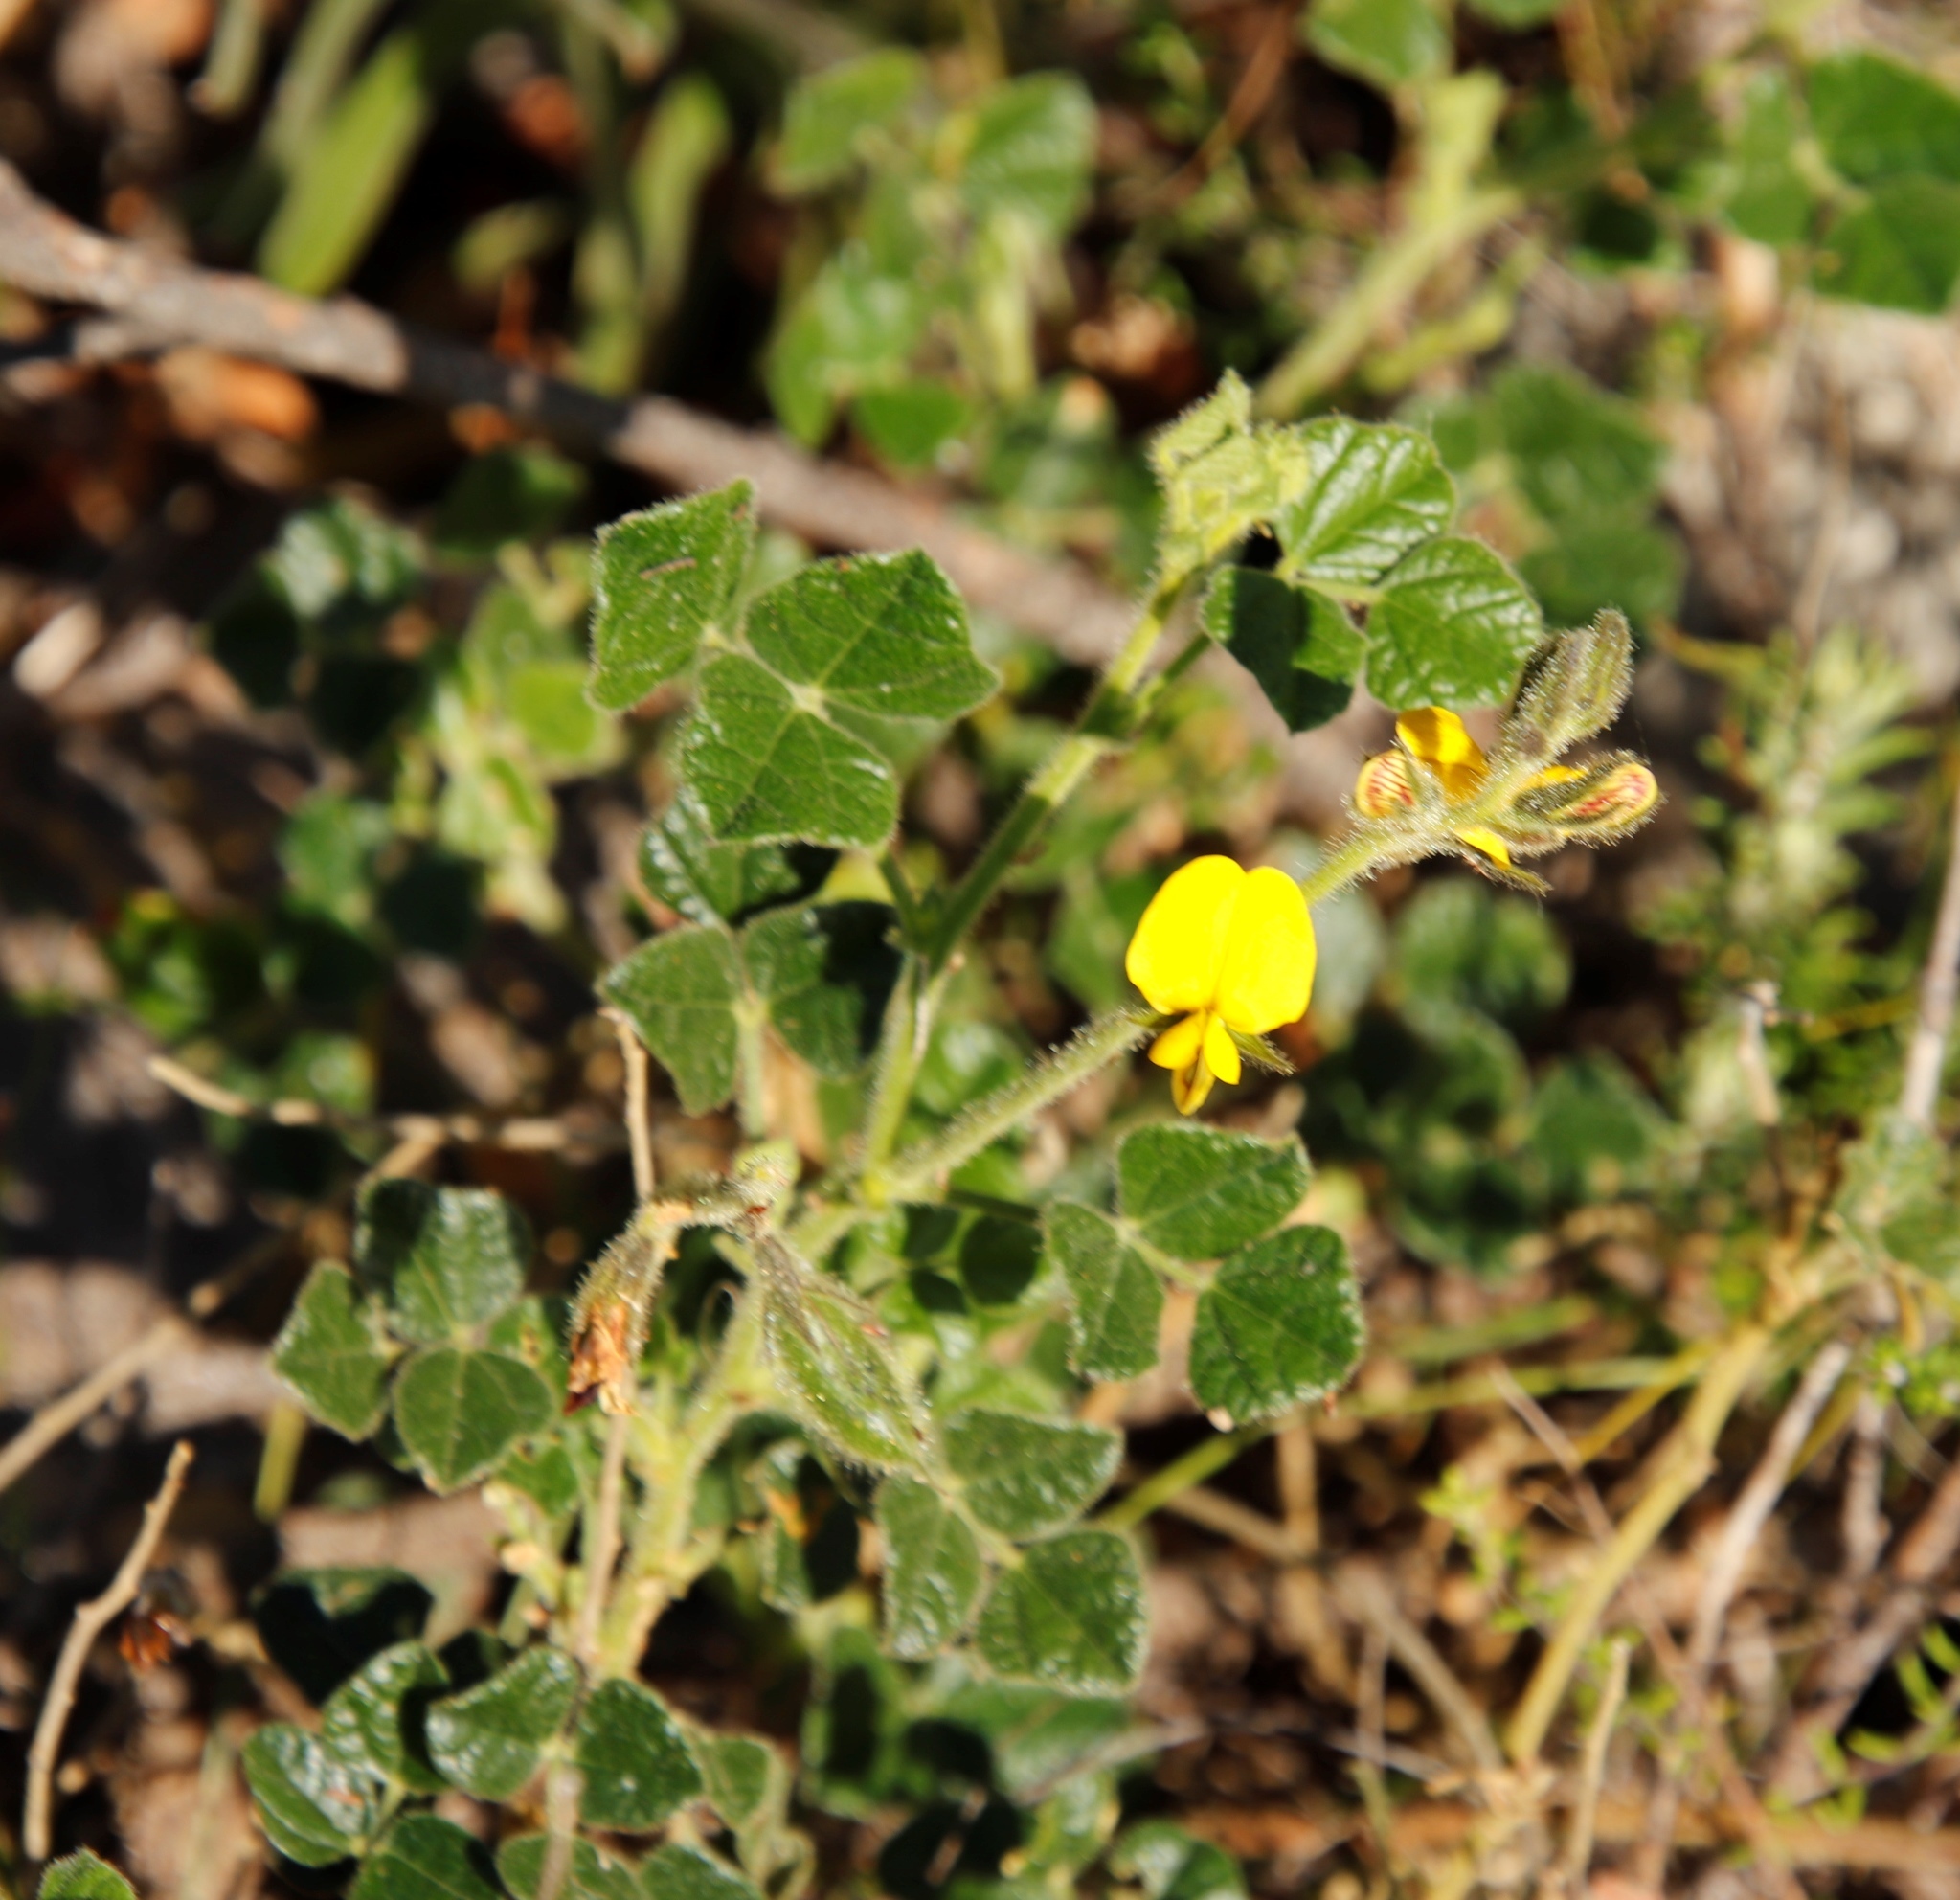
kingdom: Plantae
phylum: Tracheophyta
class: Magnoliopsida
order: Fabales
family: Fabaceae
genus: Bolusafra
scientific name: Bolusafra bituminosa
